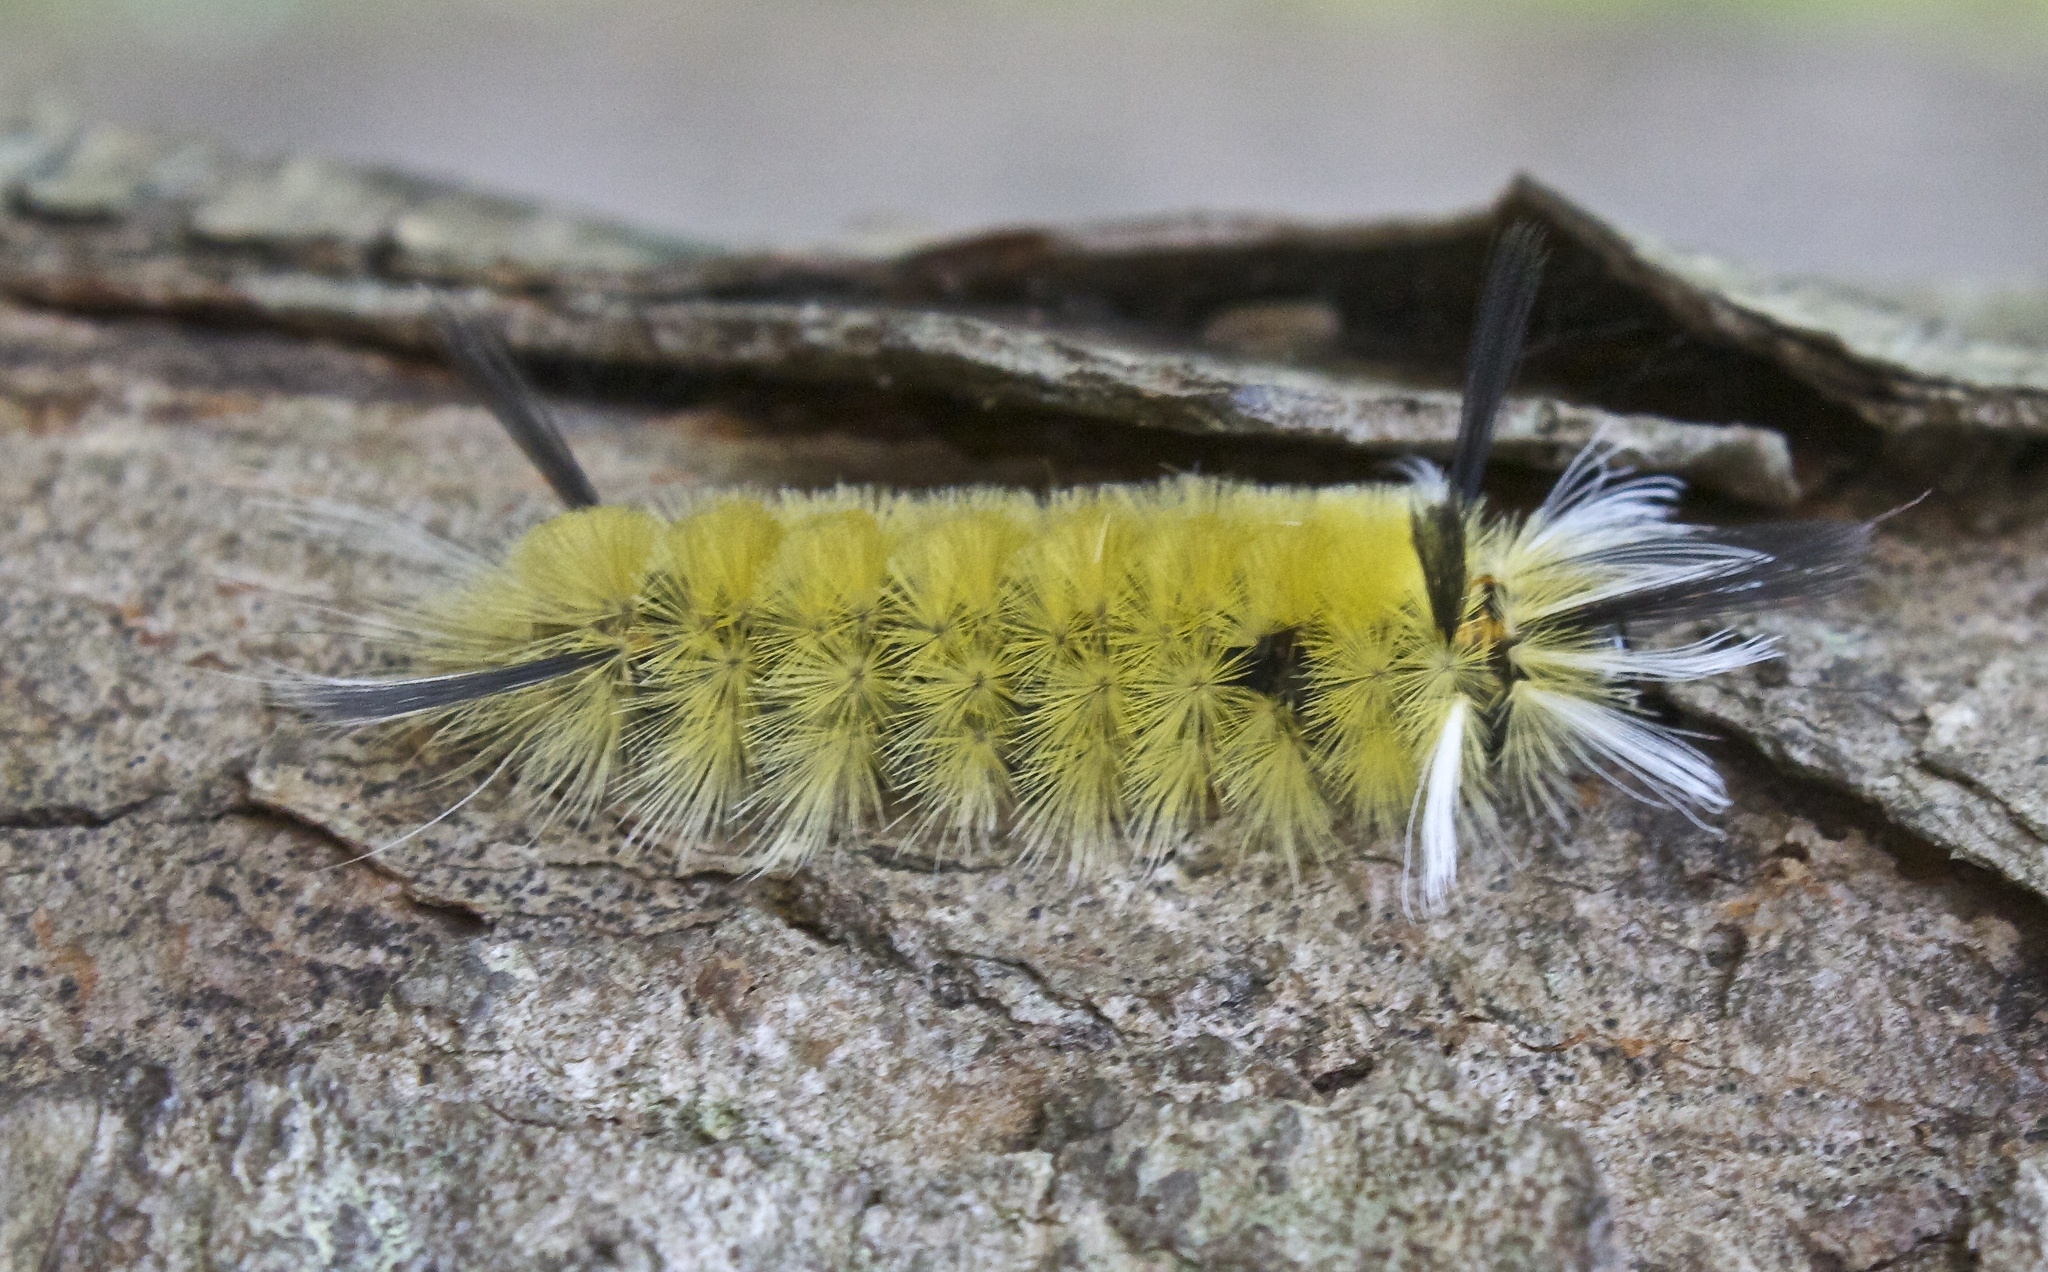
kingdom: Animalia
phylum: Arthropoda
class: Insecta
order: Lepidoptera
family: Erebidae
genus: Halysidota
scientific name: Halysidota tessellaris
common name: Banded tussock moth
